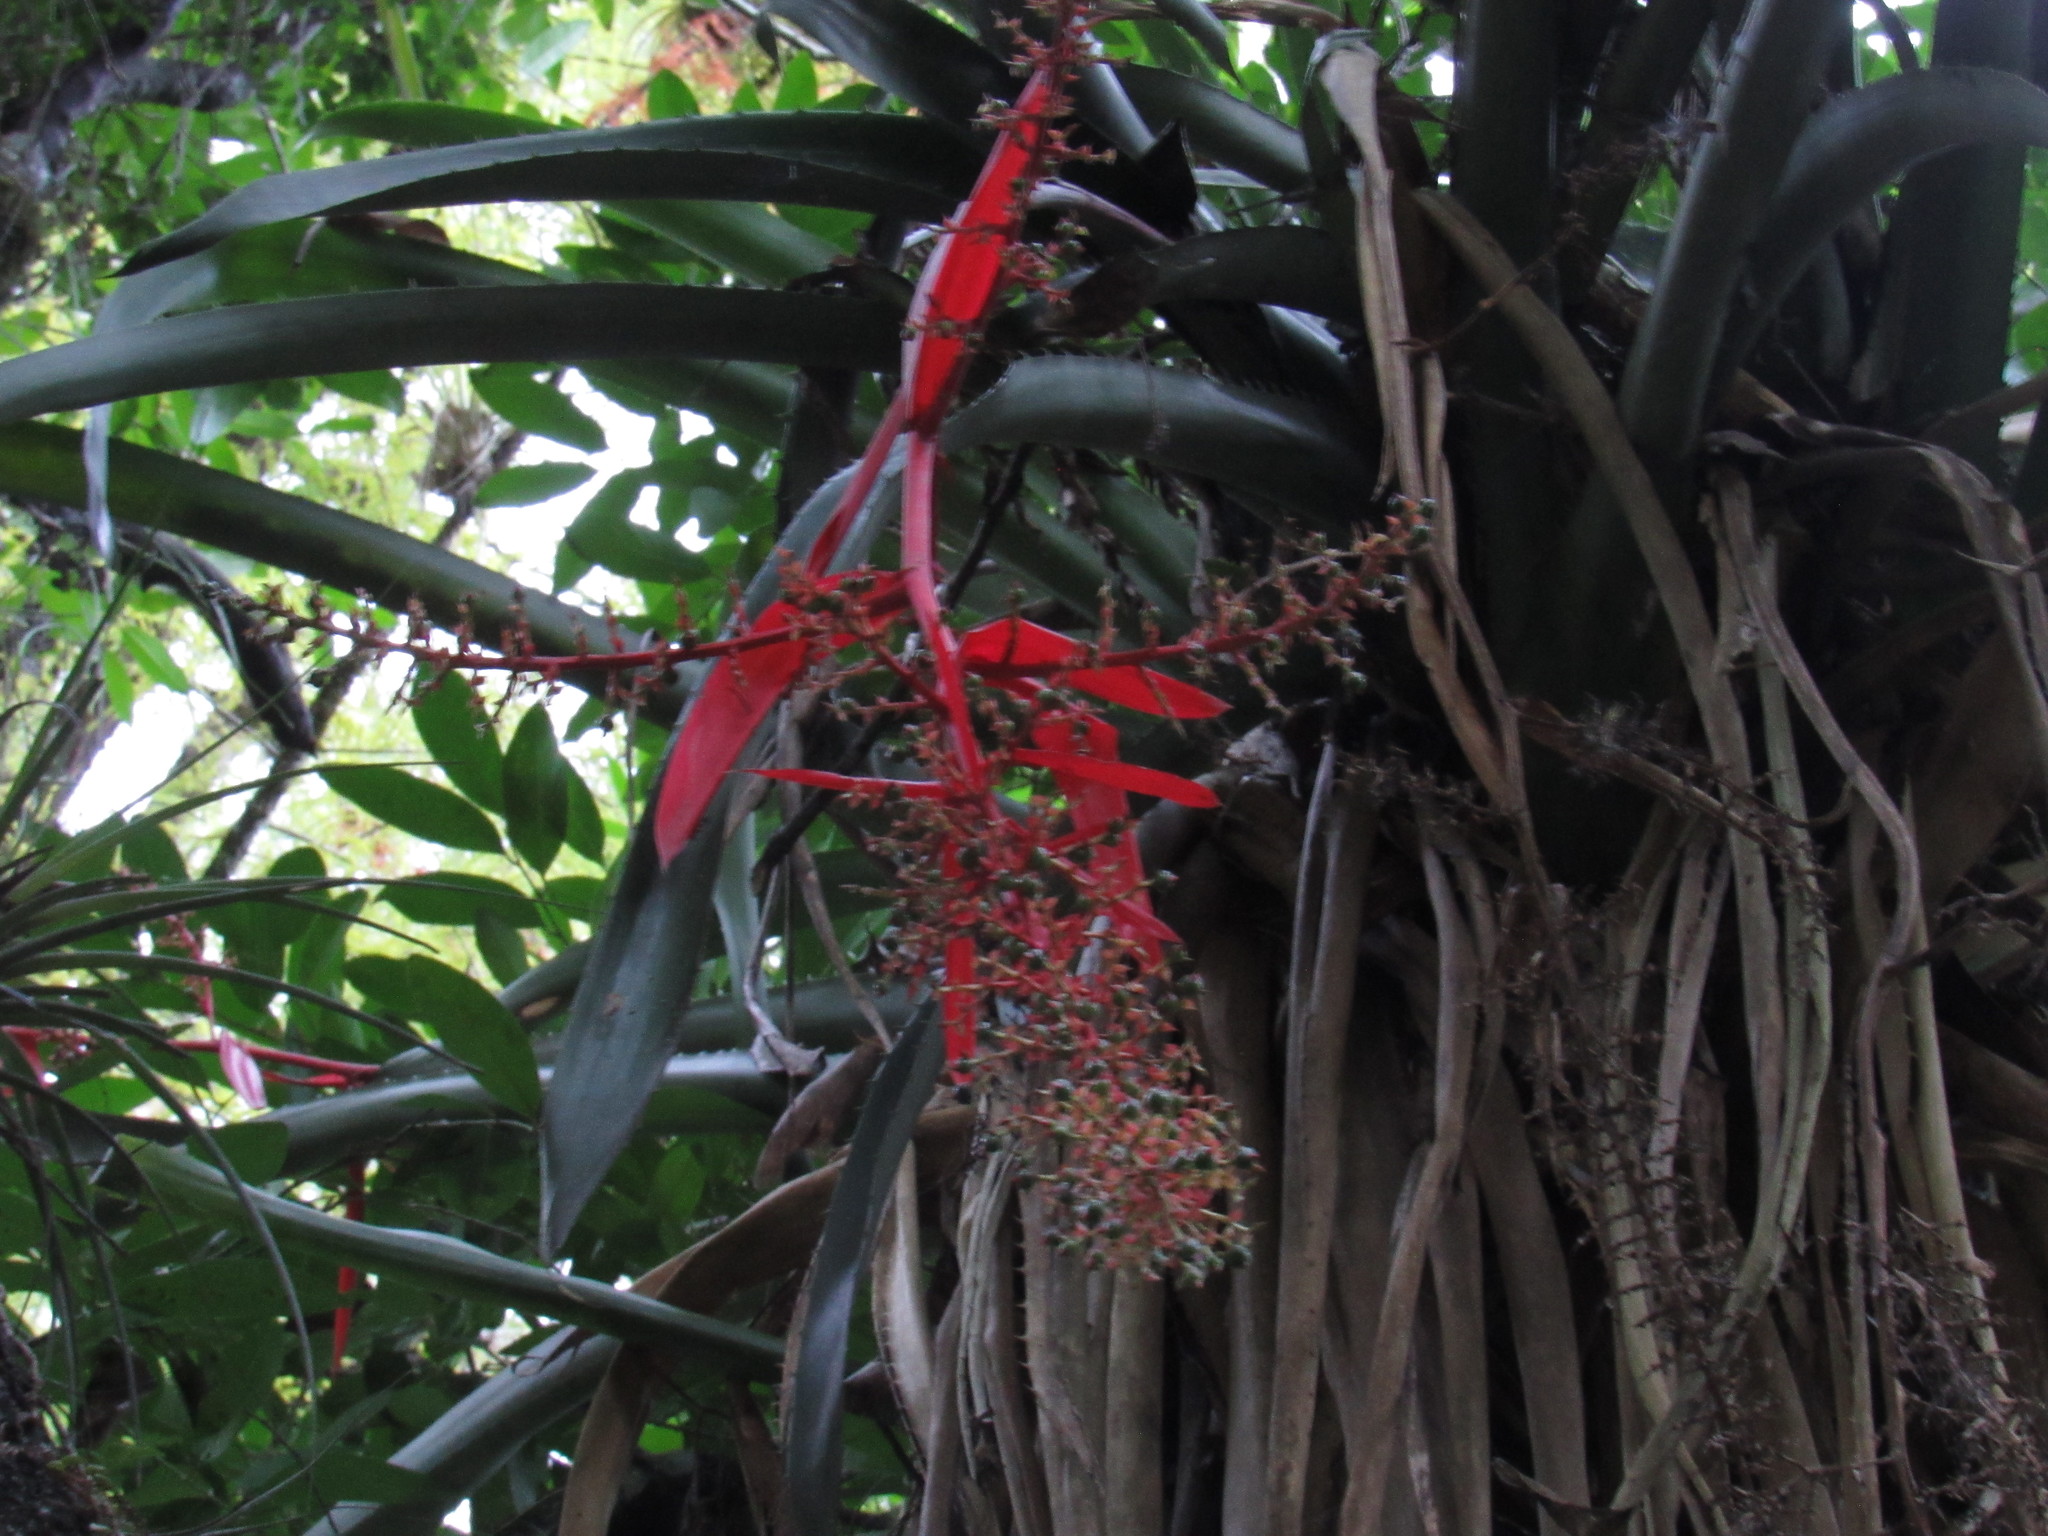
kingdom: Plantae
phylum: Tracheophyta
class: Liliopsida
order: Poales
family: Bromeliaceae
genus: Aechmea
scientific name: Aechmea bracteata
